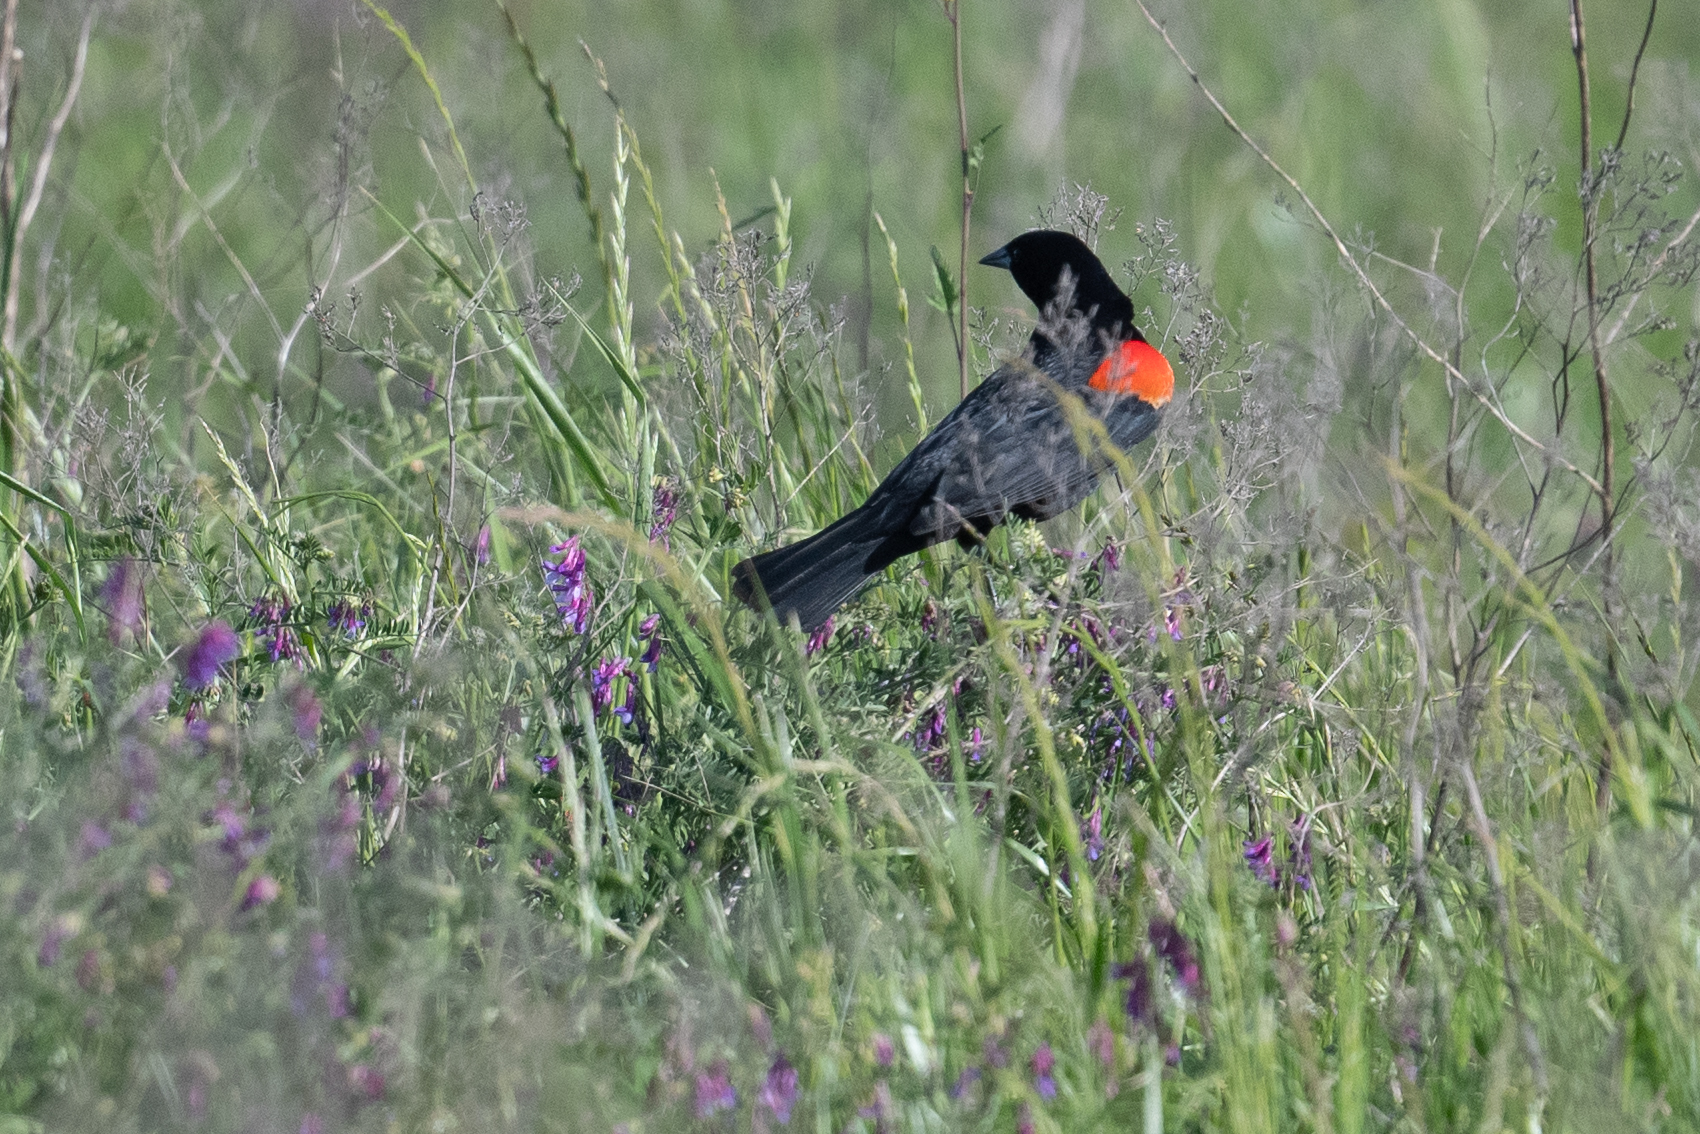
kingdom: Animalia
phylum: Chordata
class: Aves
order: Passeriformes
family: Icteridae
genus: Agelaius
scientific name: Agelaius phoeniceus
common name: Red-winged blackbird
